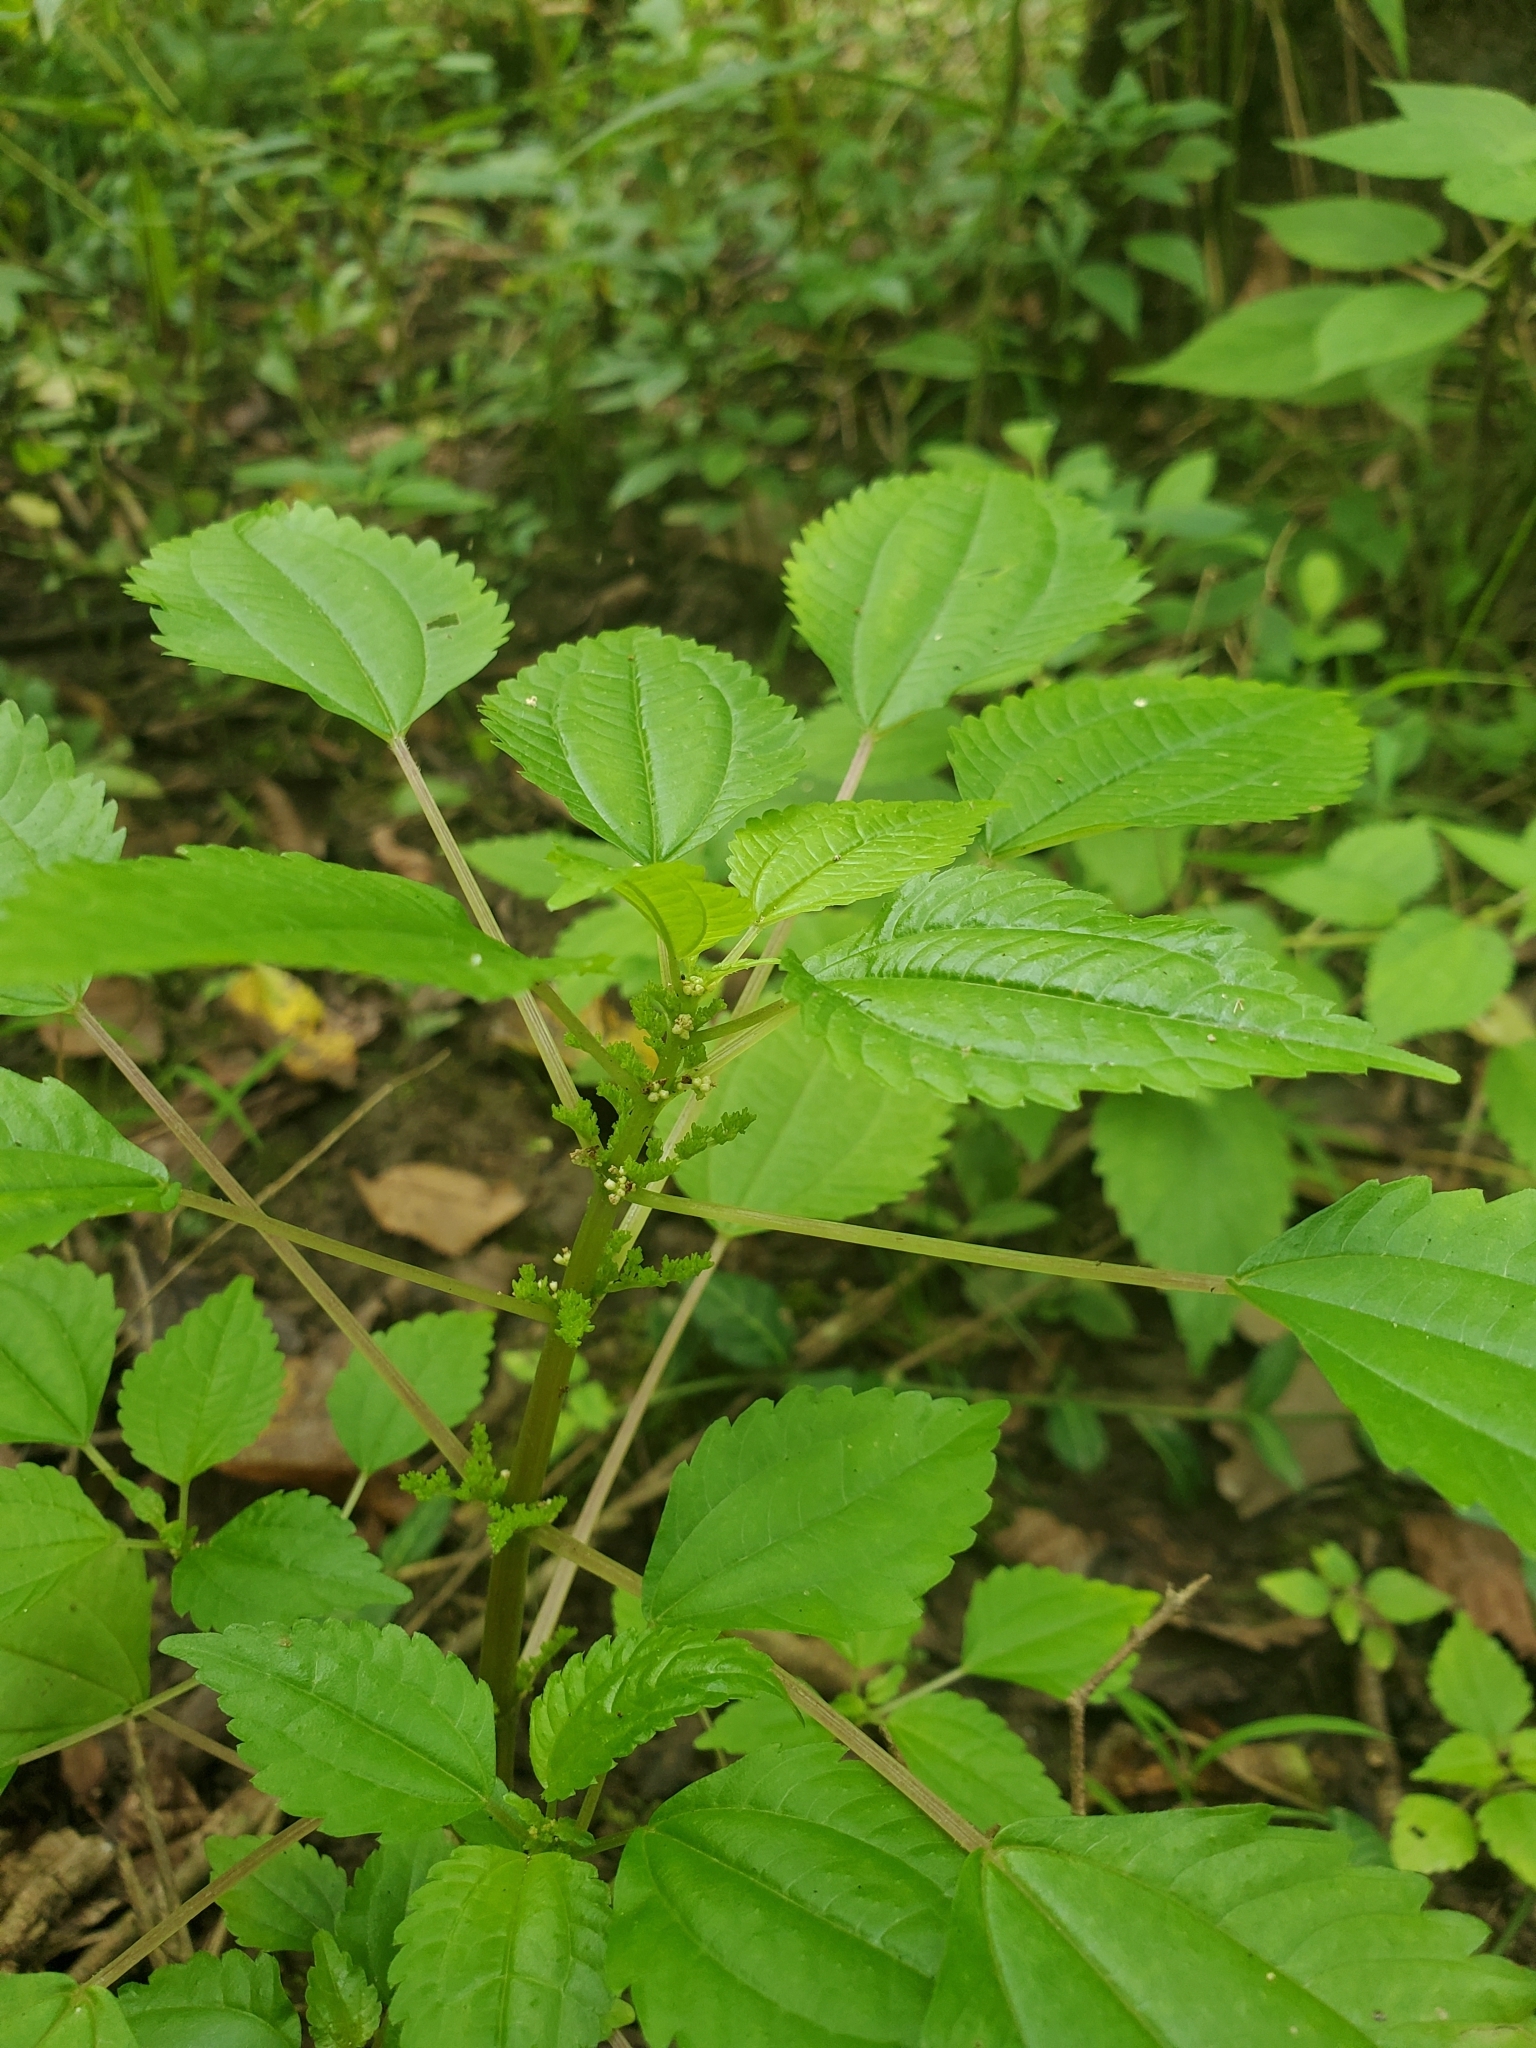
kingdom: Plantae
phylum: Tracheophyta
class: Magnoliopsida
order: Rosales
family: Urticaceae
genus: Pilea
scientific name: Pilea pumila
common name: Clearweed
